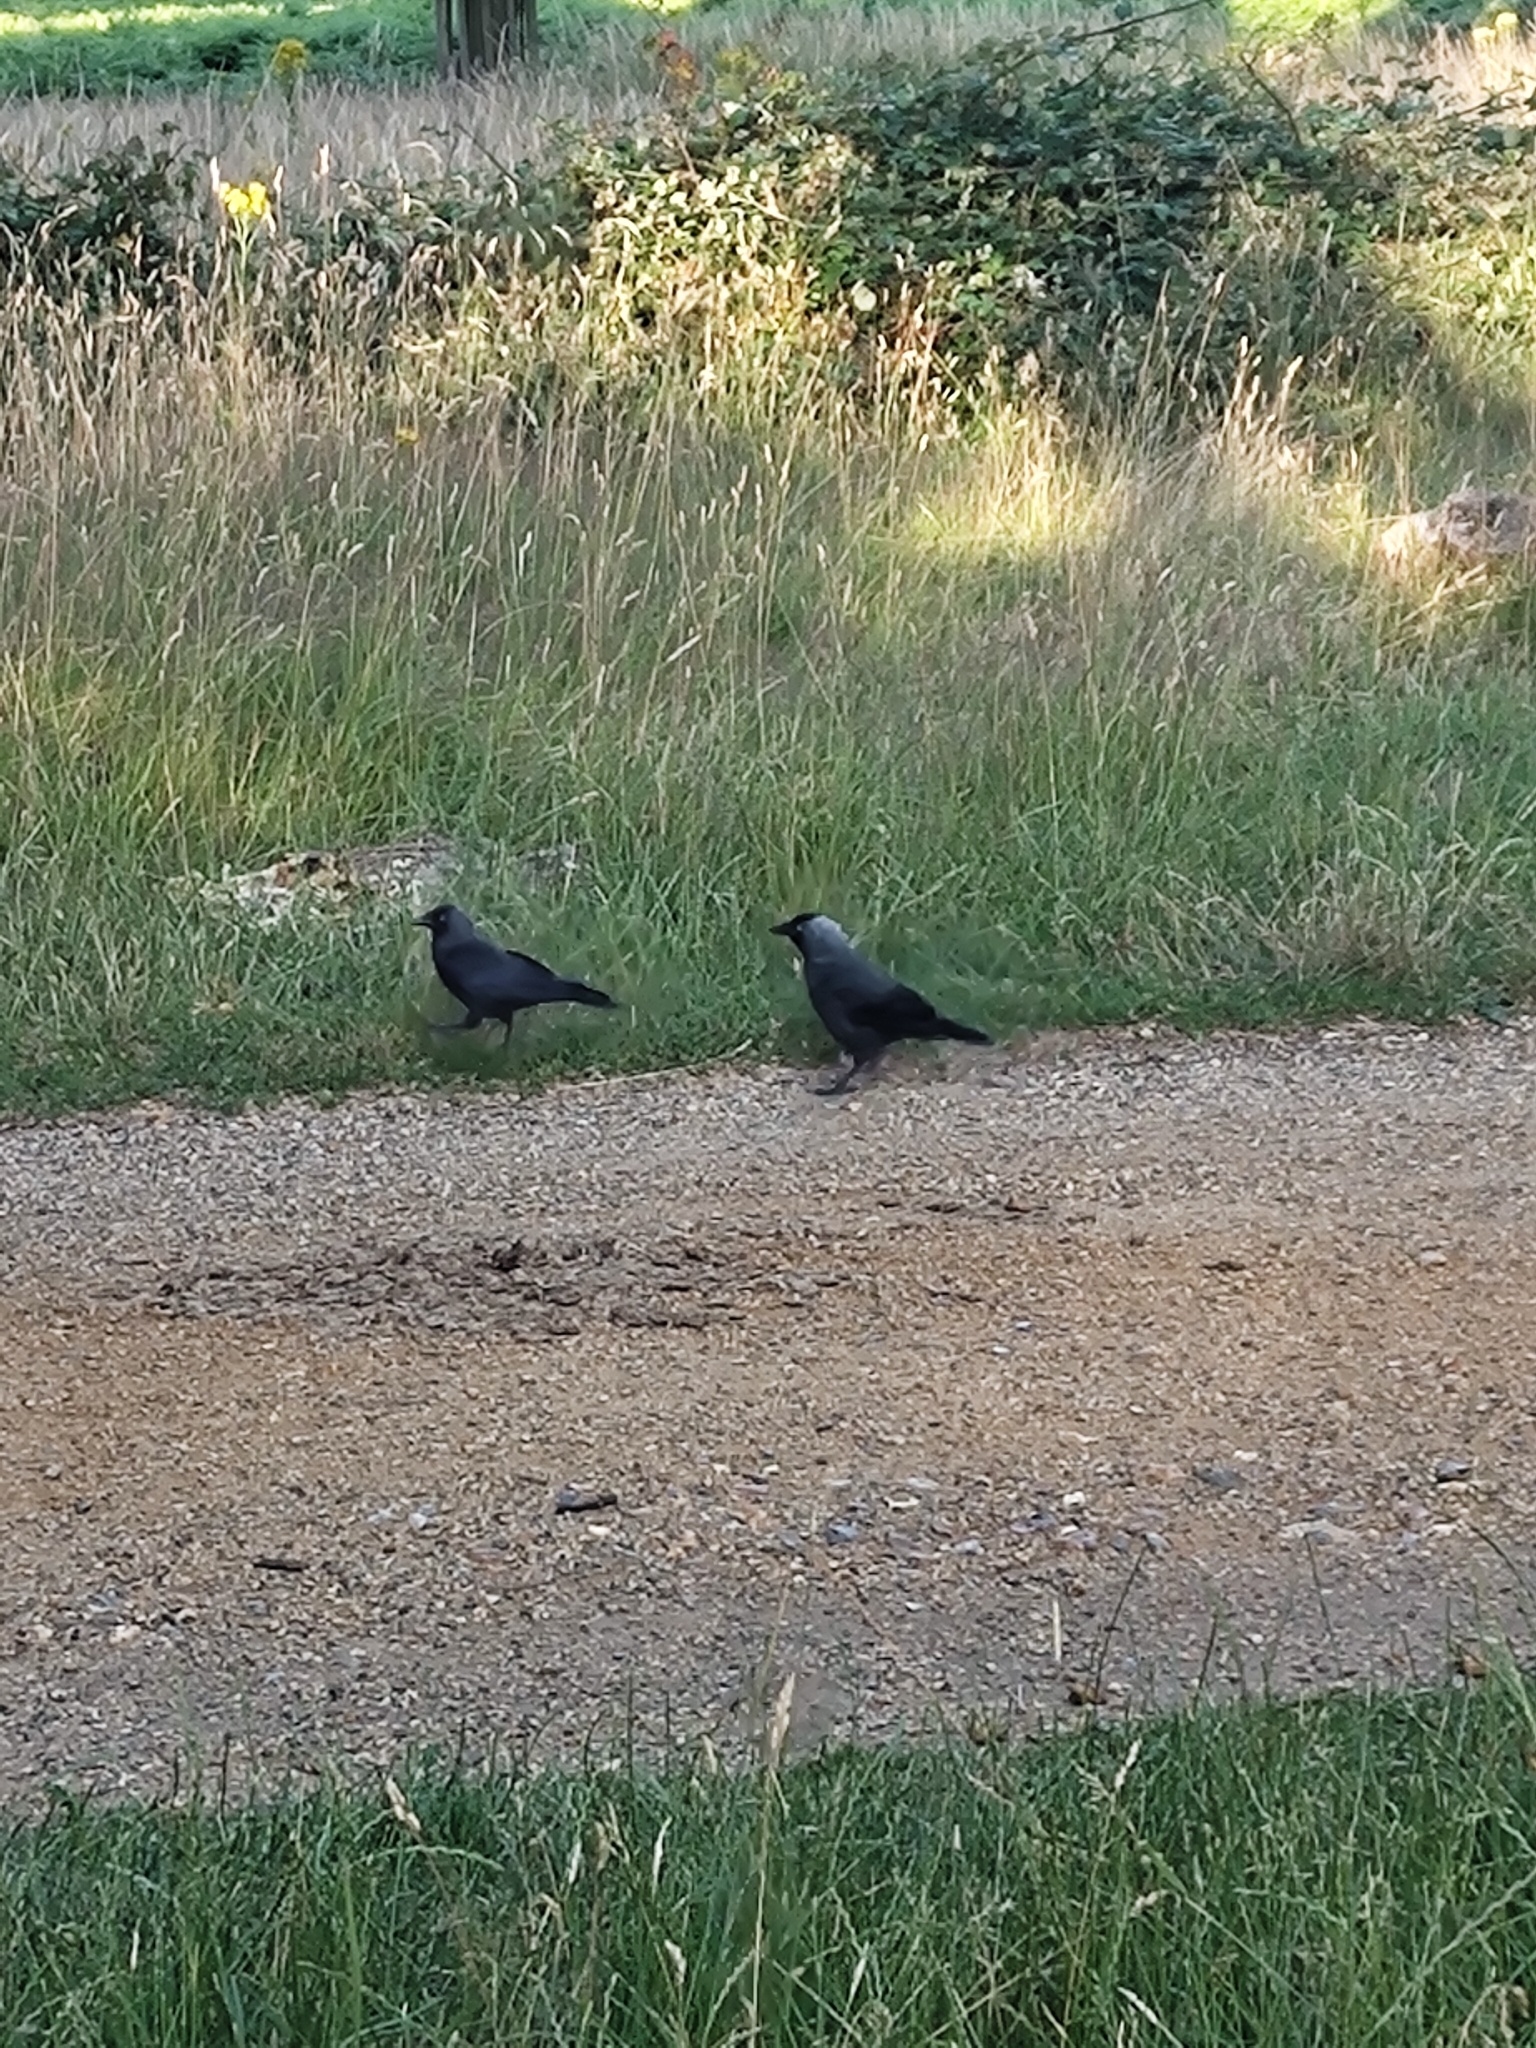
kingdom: Animalia
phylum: Chordata
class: Aves
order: Passeriformes
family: Corvidae
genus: Coloeus
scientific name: Coloeus monedula
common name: Western jackdaw
